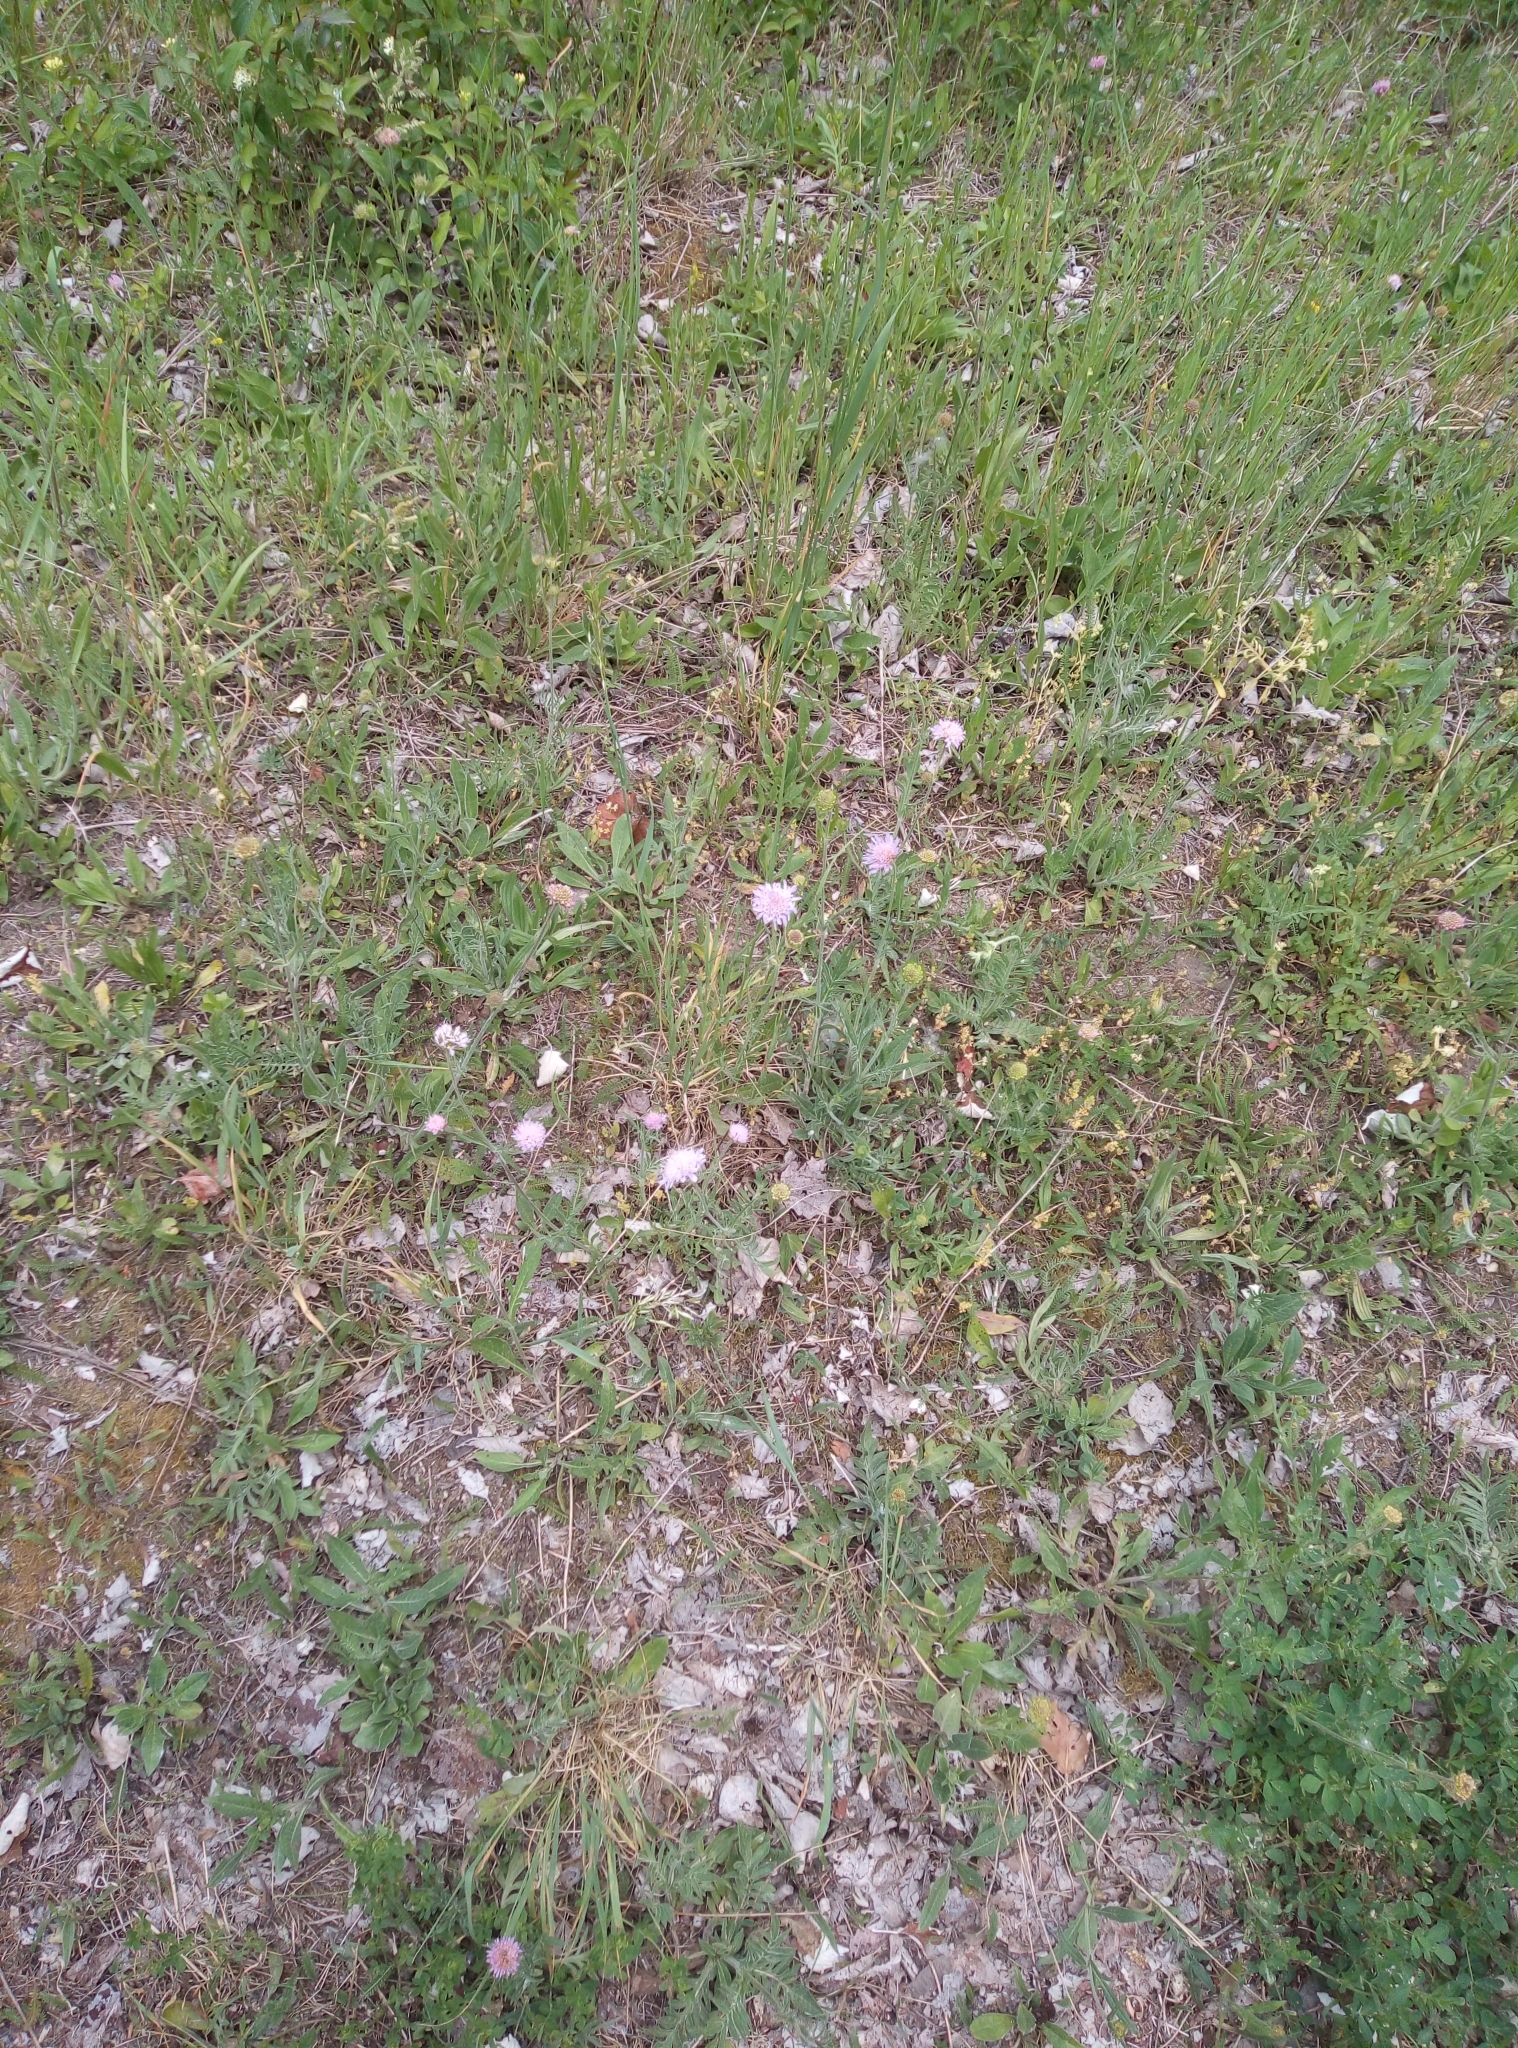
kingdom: Plantae
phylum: Tracheophyta
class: Magnoliopsida
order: Dipsacales
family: Caprifoliaceae
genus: Knautia
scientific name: Knautia arvensis
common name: Field scabiosa
